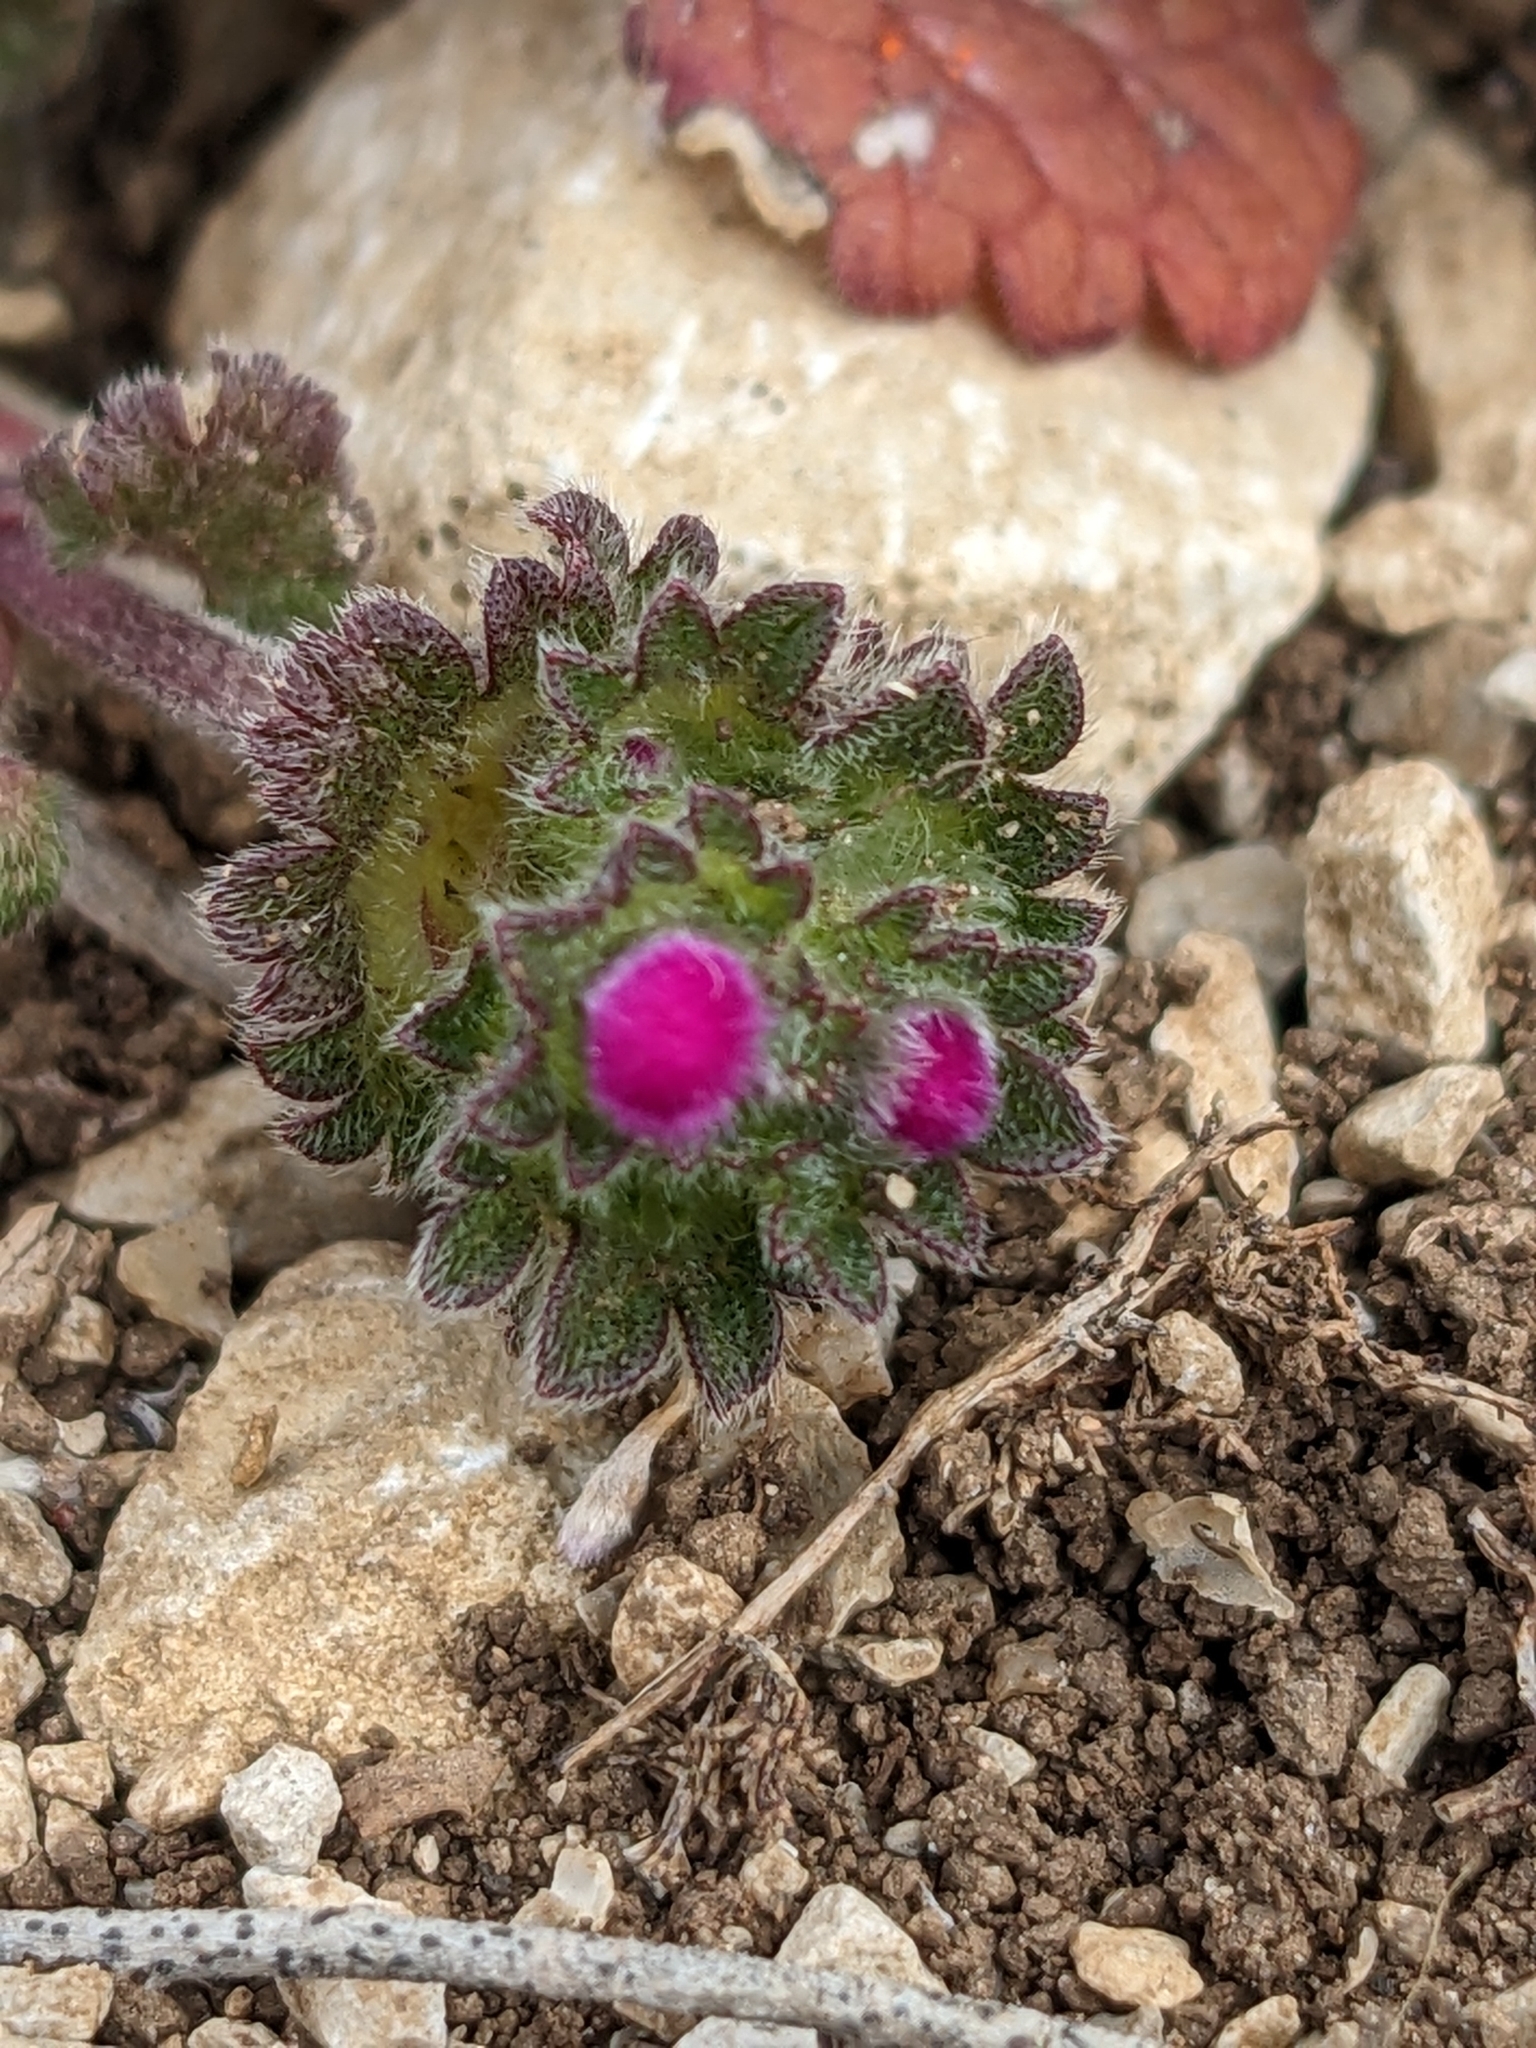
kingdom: Plantae
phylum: Tracheophyta
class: Magnoliopsida
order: Lamiales
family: Lamiaceae
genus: Lamium
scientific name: Lamium amplexicaule
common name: Henbit dead-nettle
